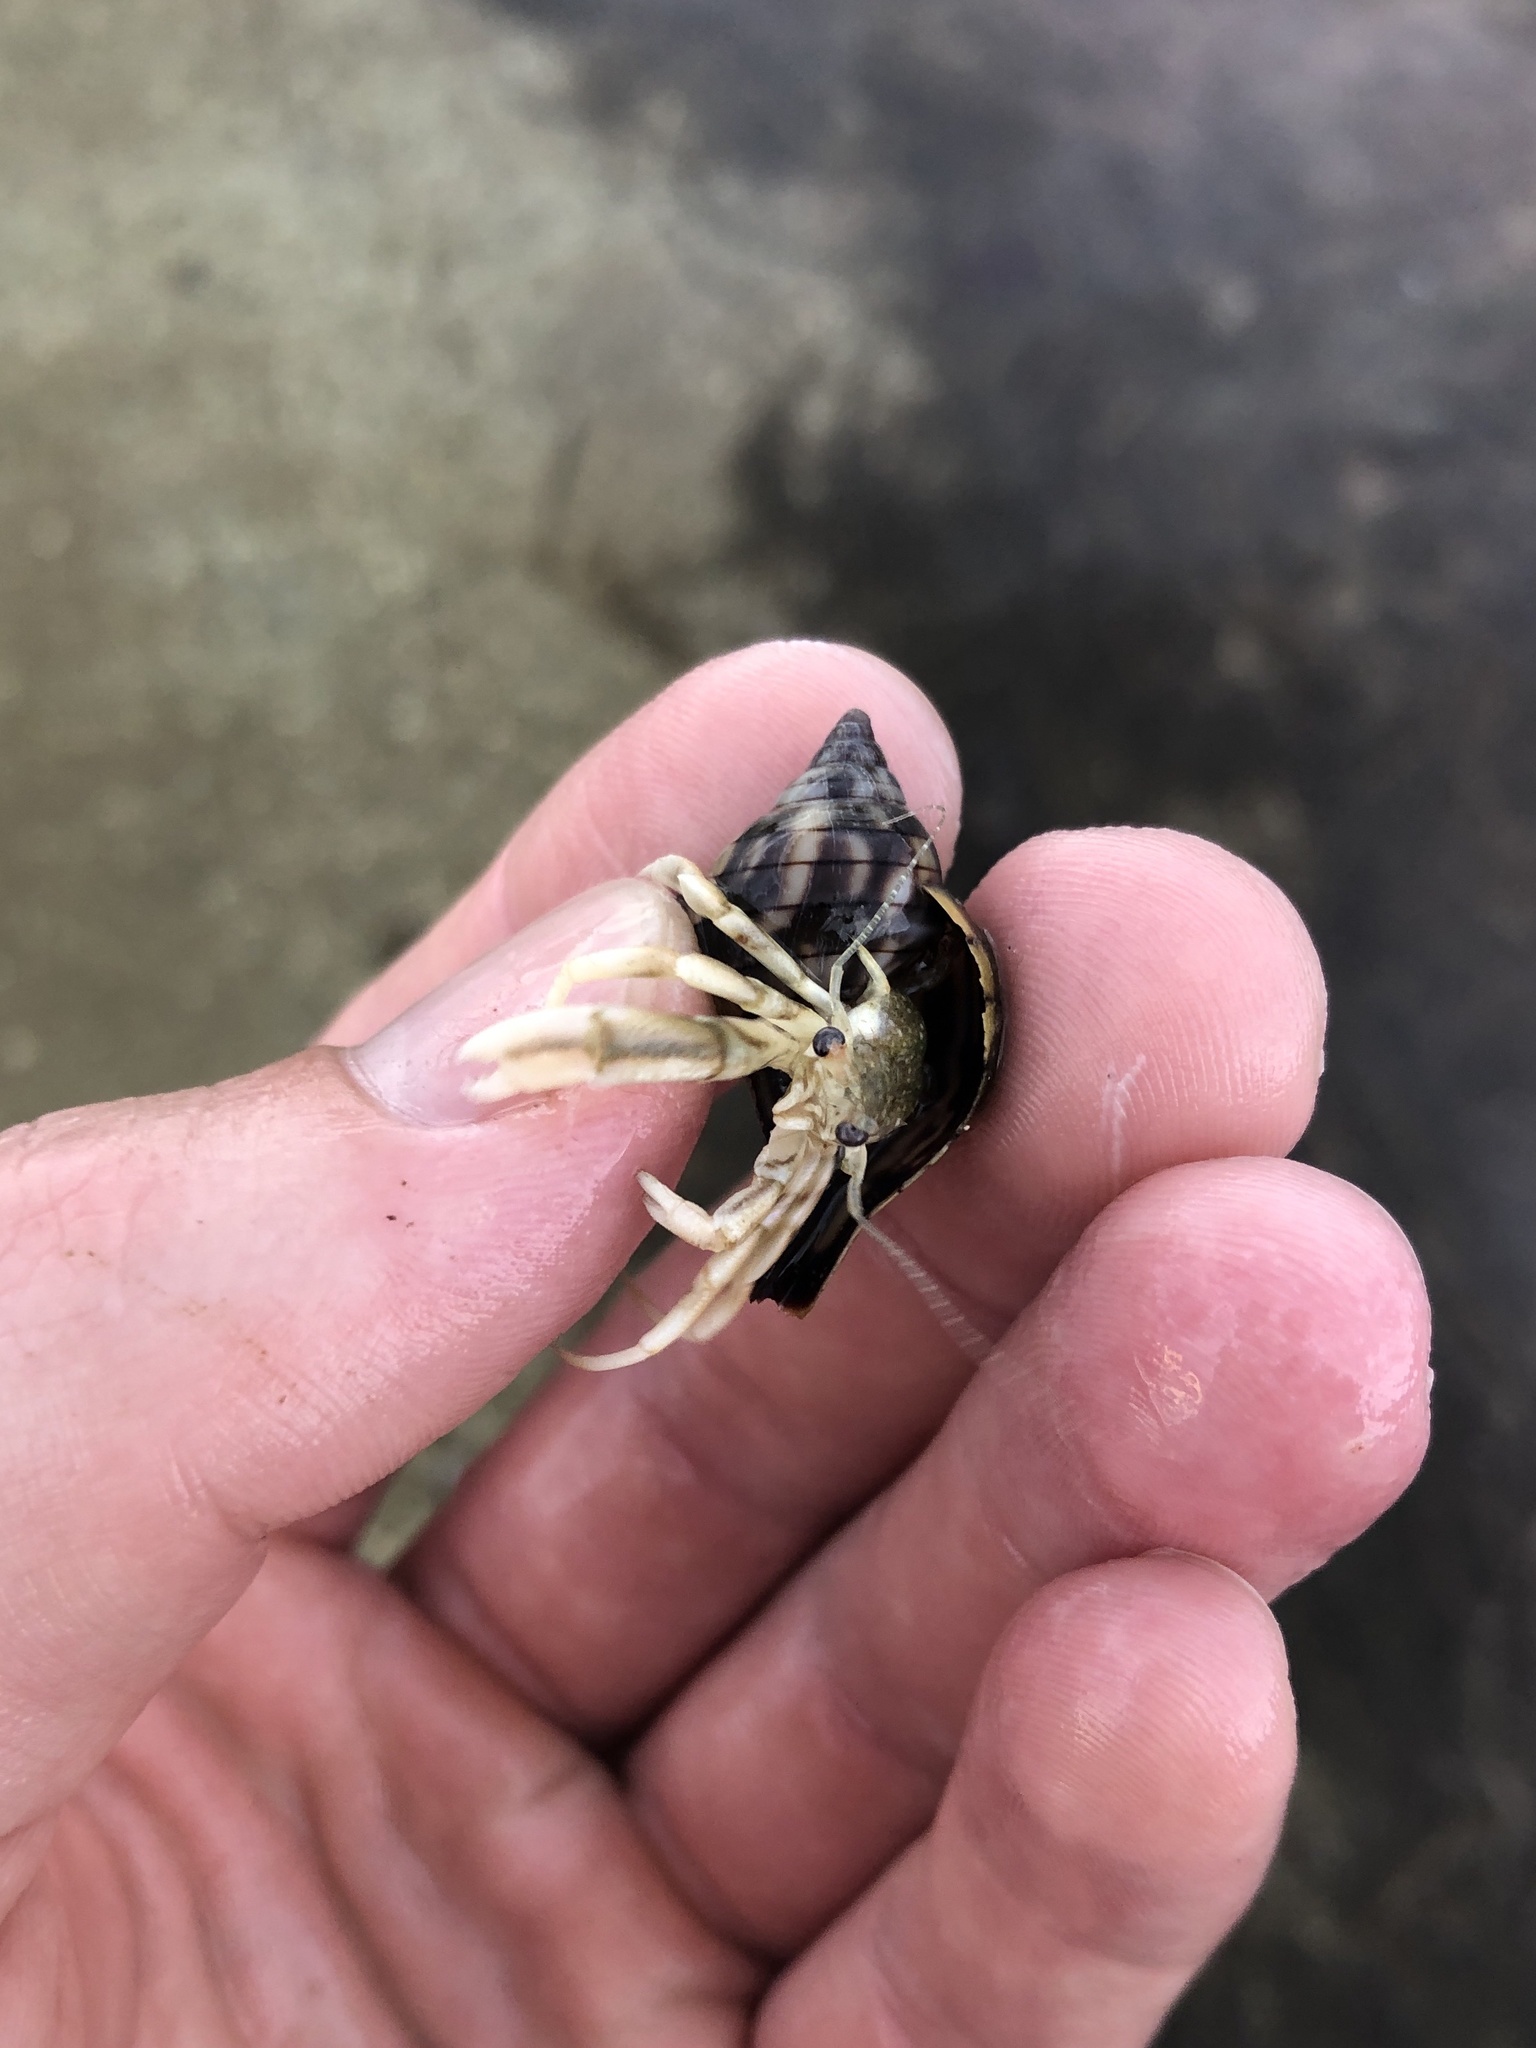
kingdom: Animalia
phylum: Arthropoda
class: Malacostraca
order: Decapoda
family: Paguridae
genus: Pagurus
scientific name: Pagurus longicarpus
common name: Long-armed hermit crab
